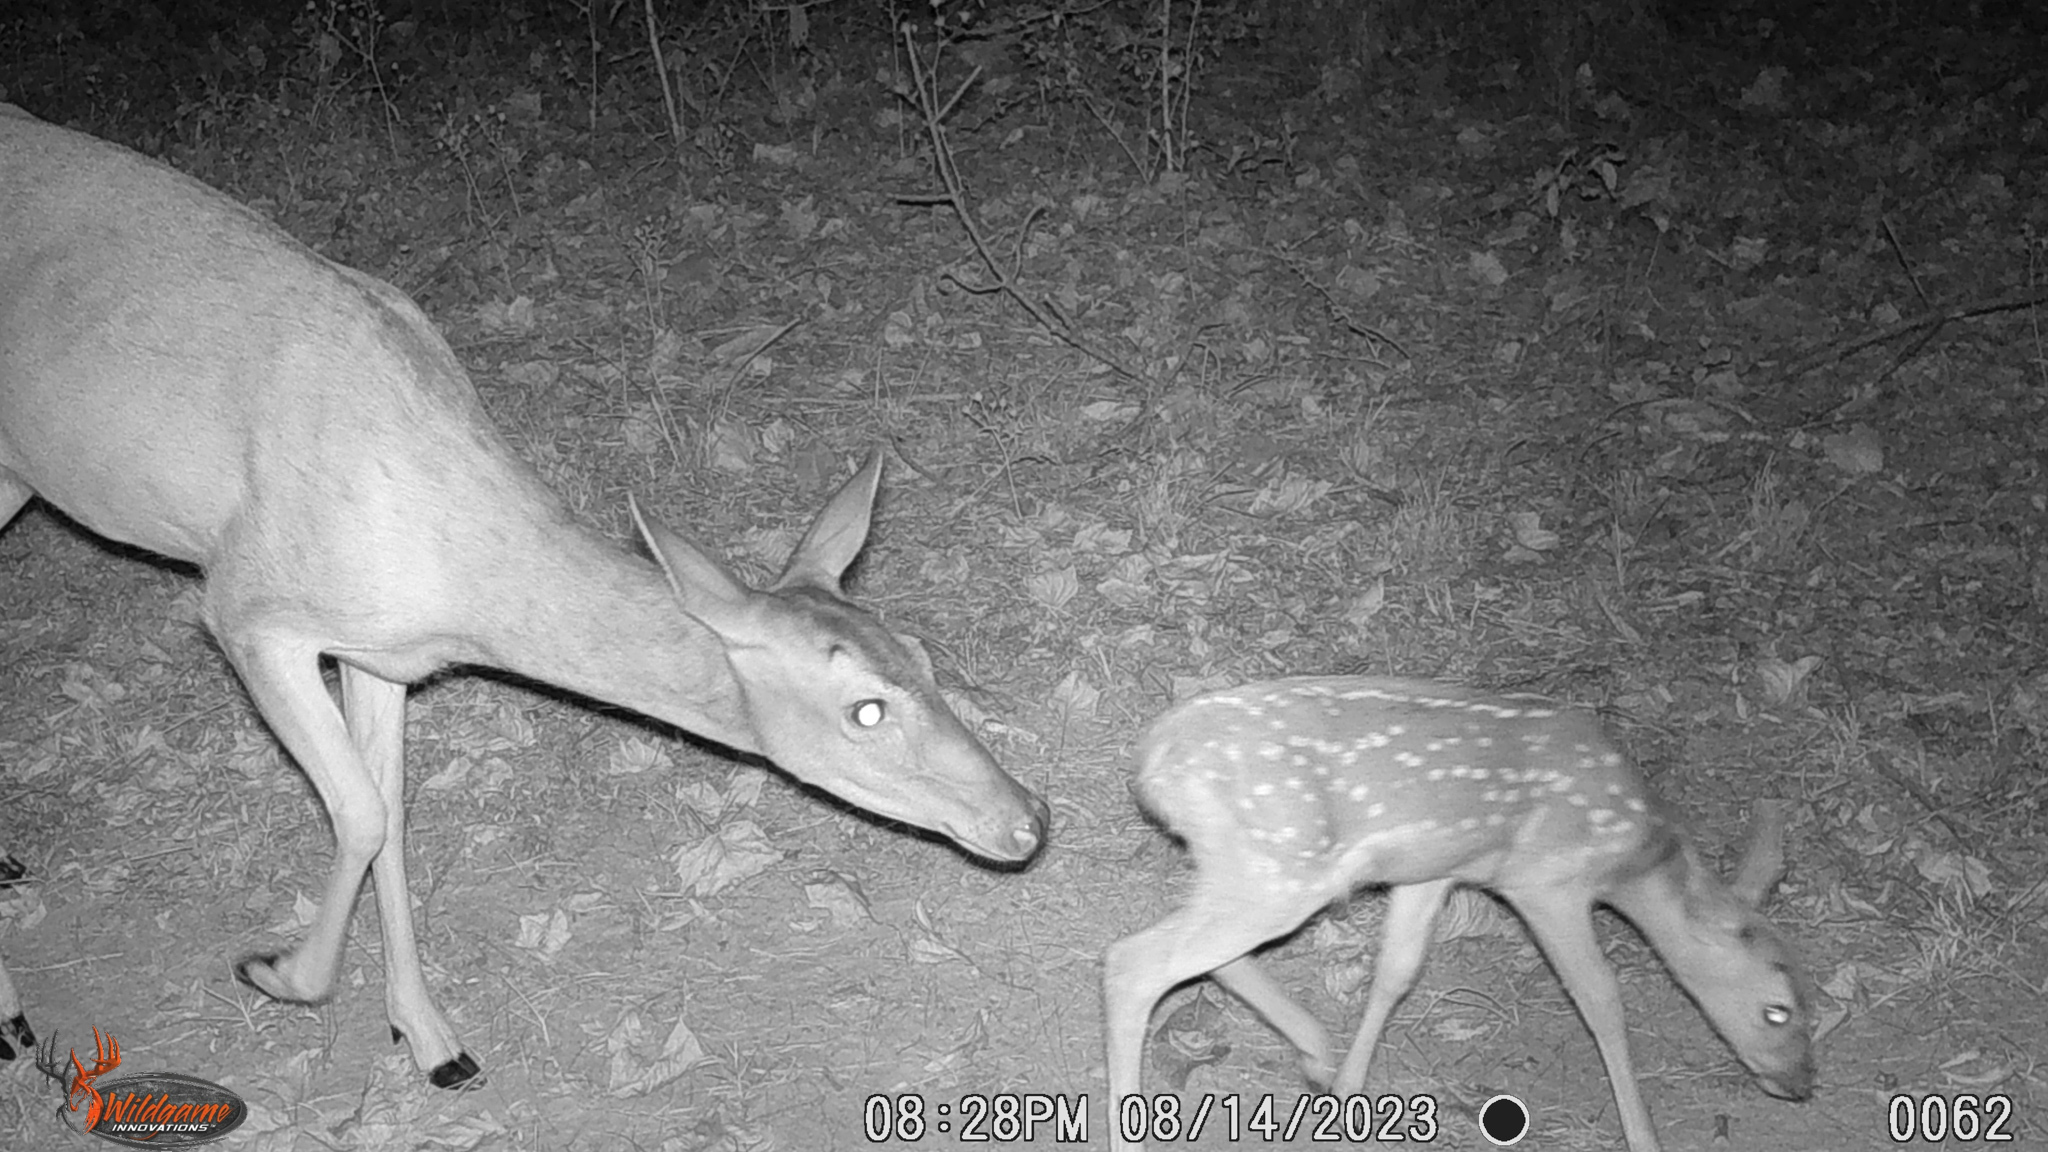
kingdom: Animalia
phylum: Chordata
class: Mammalia
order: Artiodactyla
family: Cervidae
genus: Odocoileus
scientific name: Odocoileus virginianus
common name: White-tailed deer
